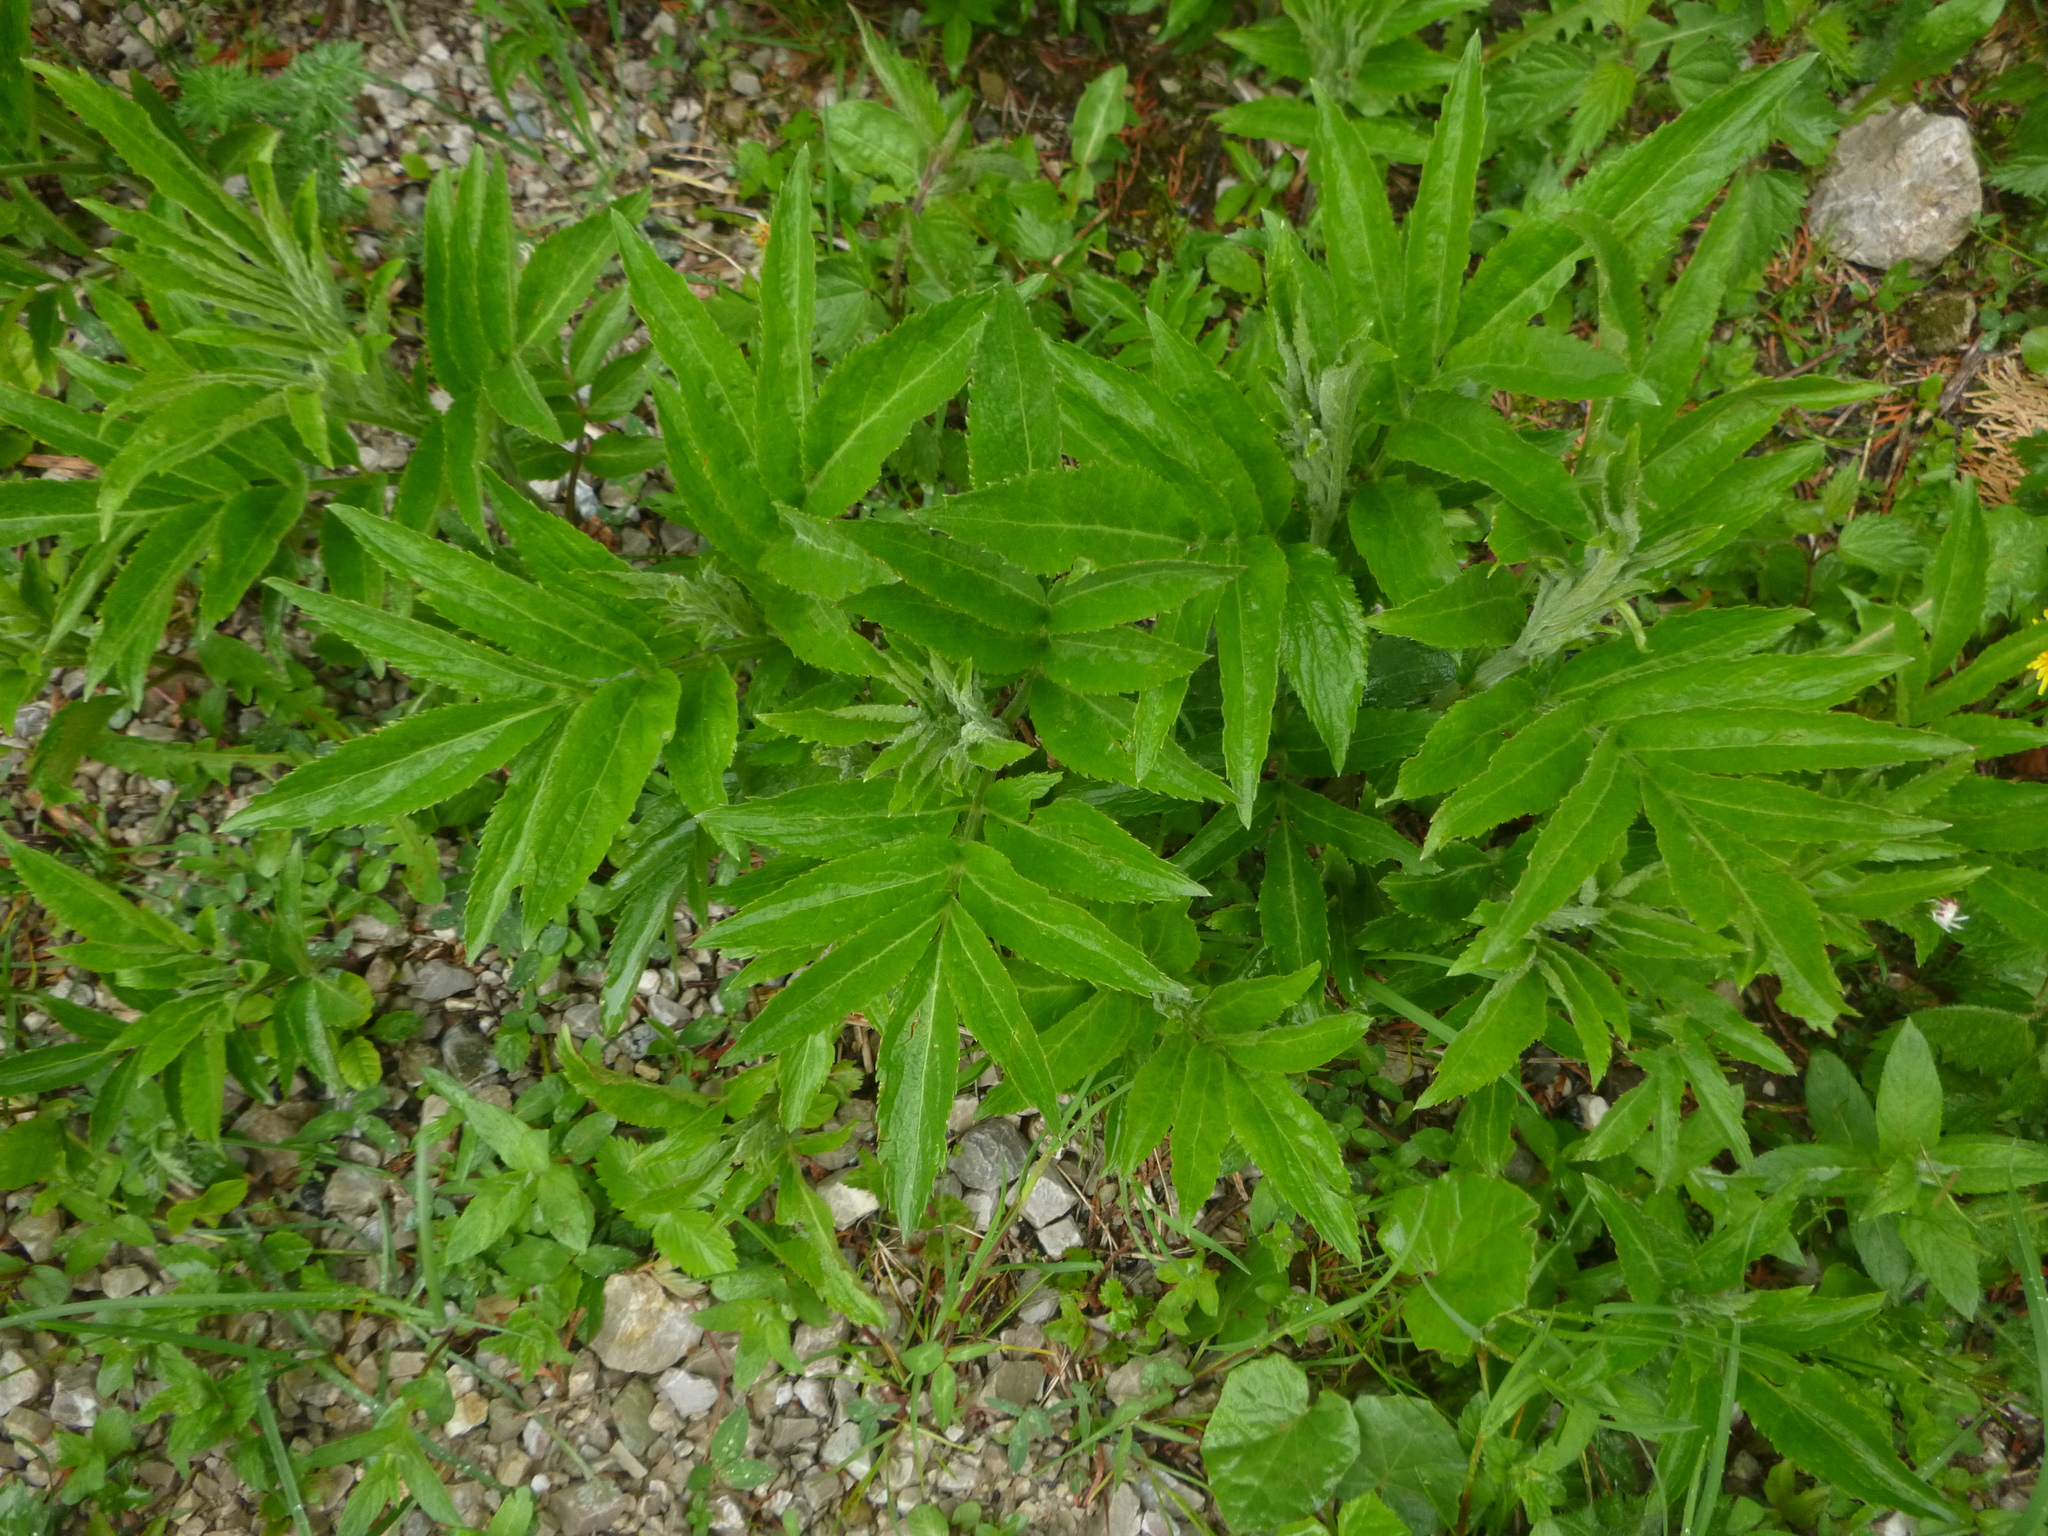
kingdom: Plantae
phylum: Tracheophyta
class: Magnoliopsida
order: Dipsacales
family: Viburnaceae
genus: Sambucus
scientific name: Sambucus ebulus
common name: Dwarf elder
